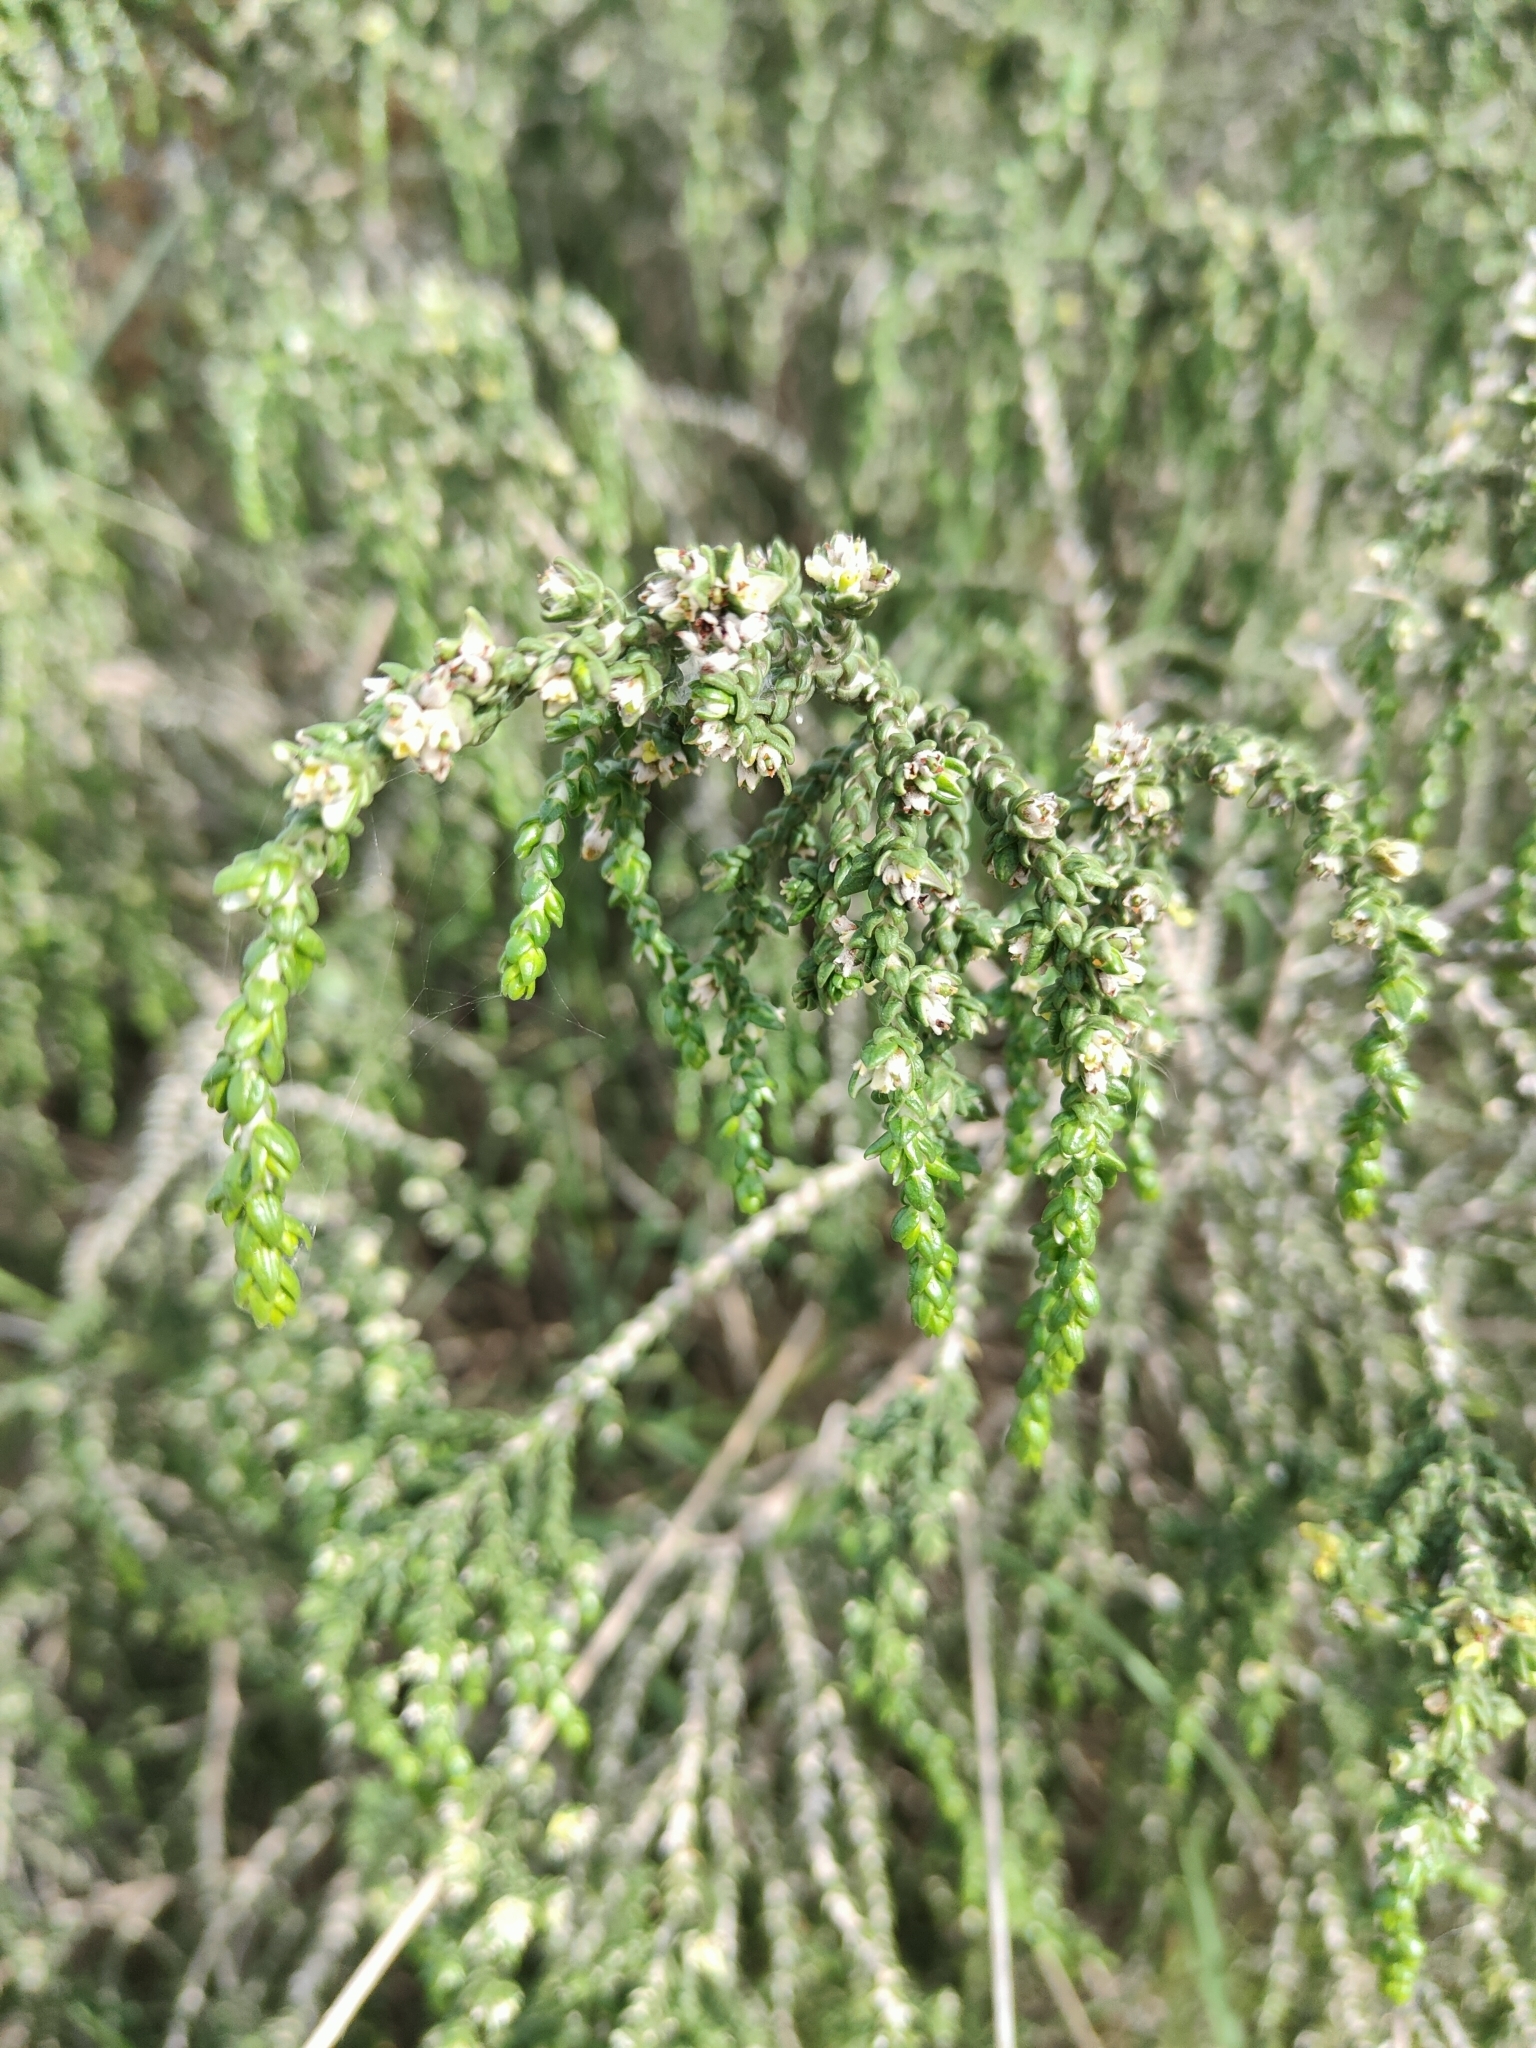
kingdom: Plantae
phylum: Tracheophyta
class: Magnoliopsida
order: Malvales
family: Thymelaeaceae
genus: Thymelaea
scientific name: Thymelaea hirsuta
